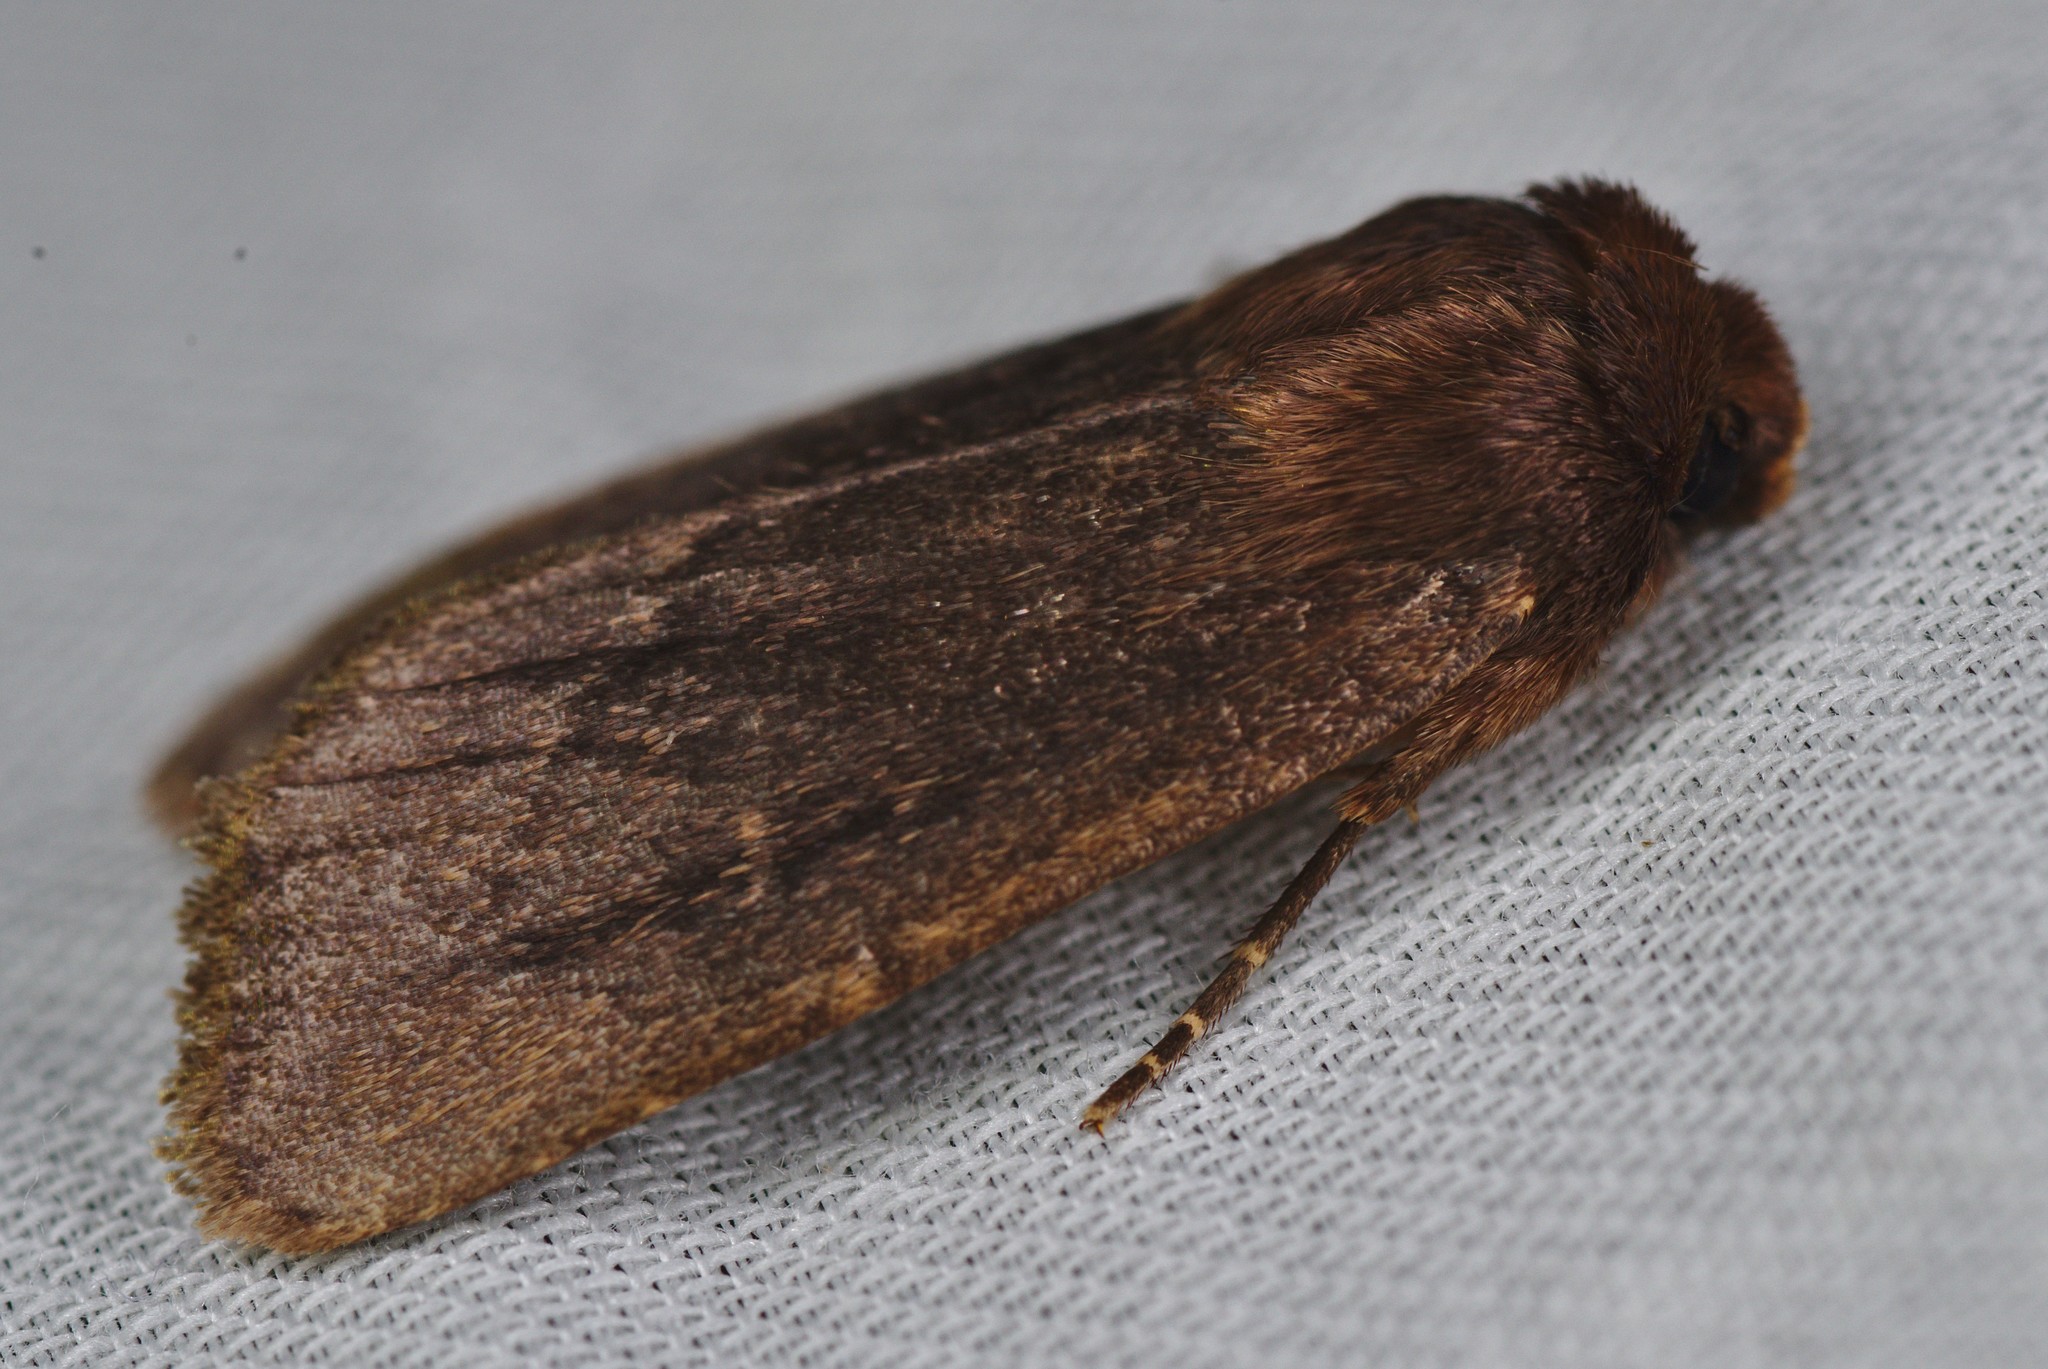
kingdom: Animalia
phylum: Arthropoda
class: Insecta
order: Lepidoptera
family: Noctuidae
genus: Bityla
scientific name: Bityla defigurata
